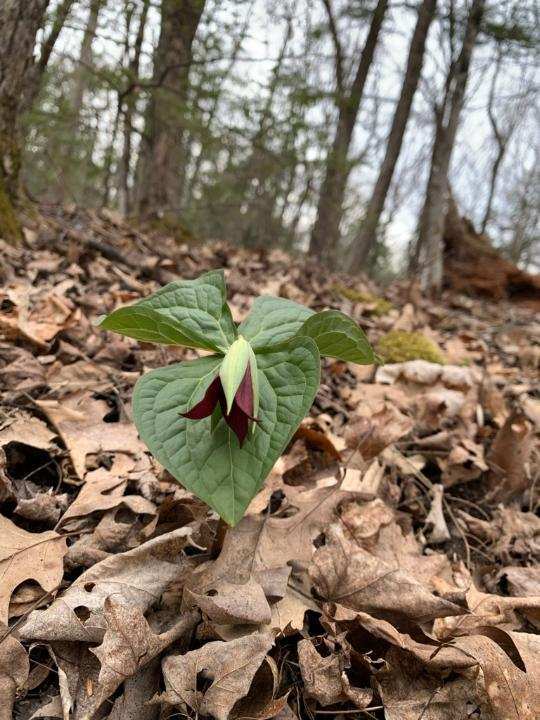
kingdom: Plantae
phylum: Tracheophyta
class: Liliopsida
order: Liliales
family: Melanthiaceae
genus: Trillium
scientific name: Trillium erectum
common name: Purple trillium
